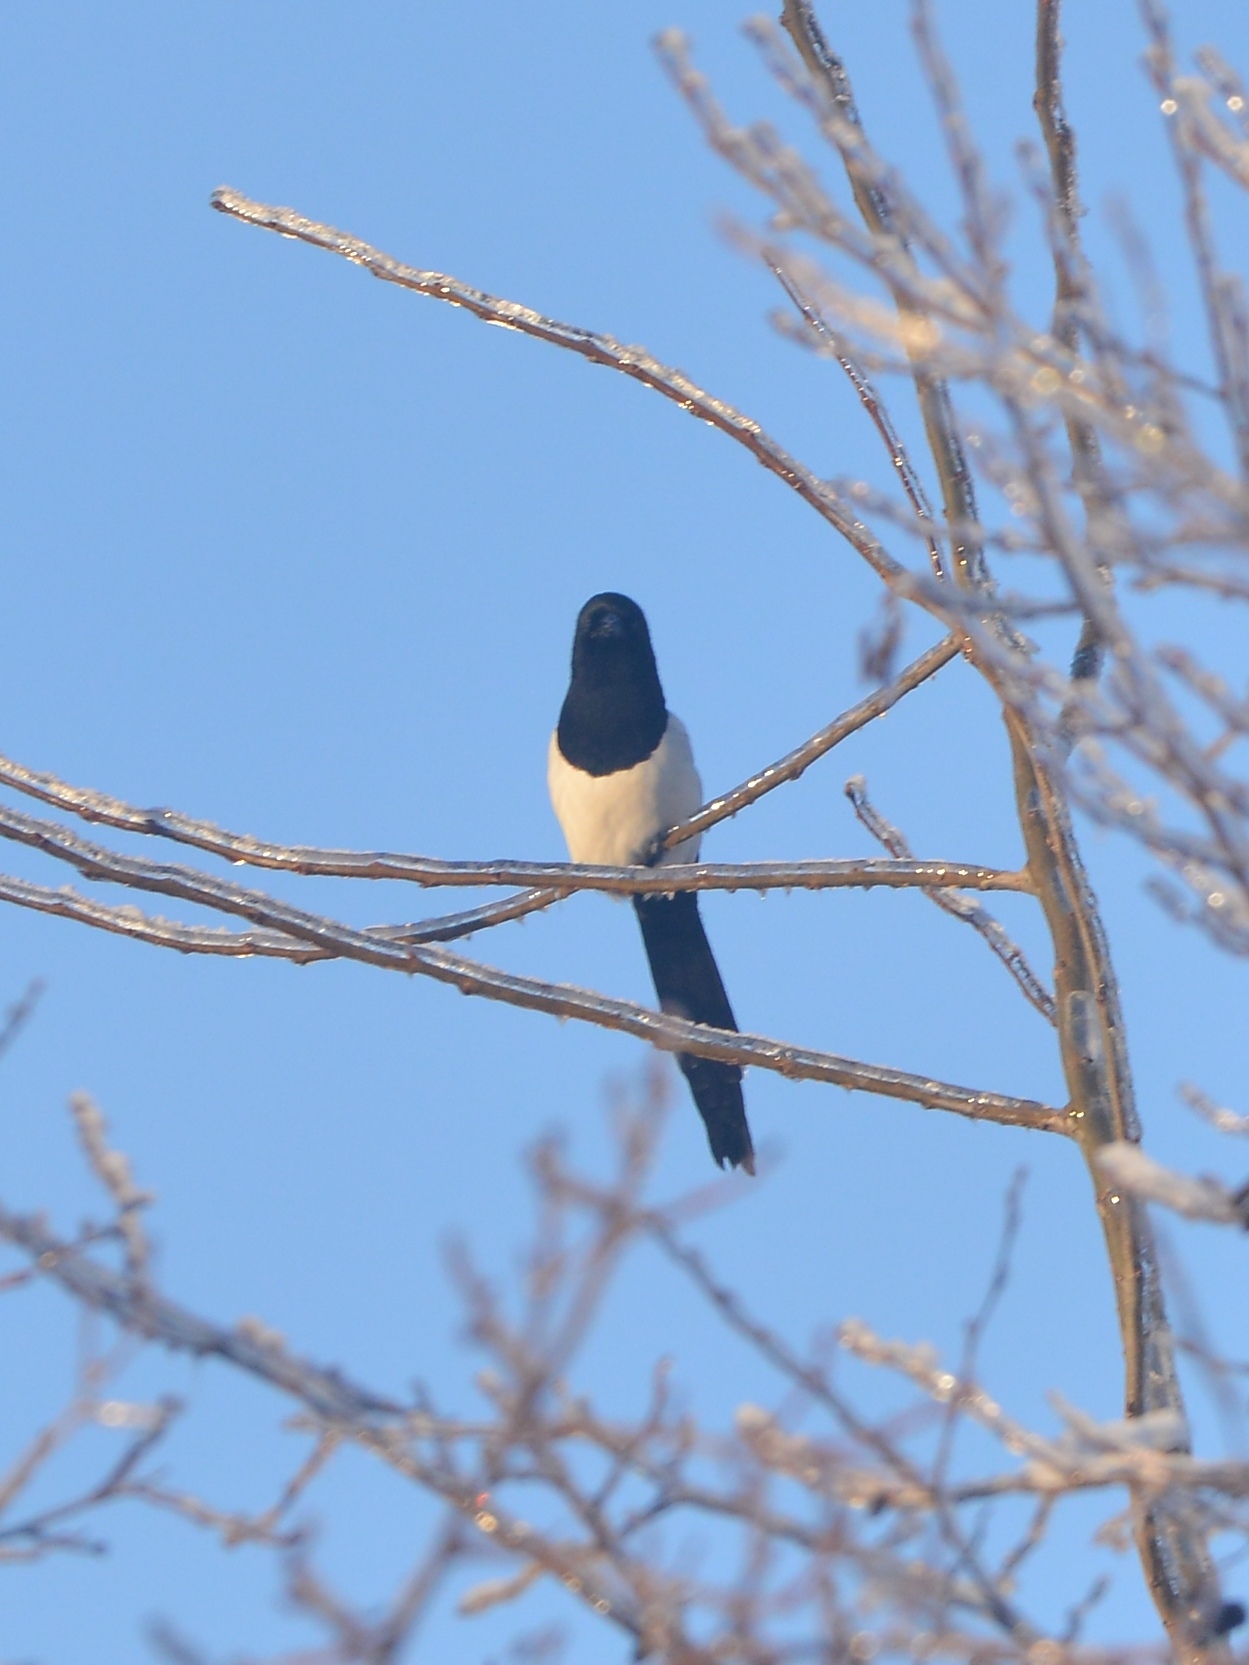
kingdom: Animalia
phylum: Chordata
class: Aves
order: Passeriformes
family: Corvidae
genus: Pica
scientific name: Pica pica
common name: Eurasian magpie
